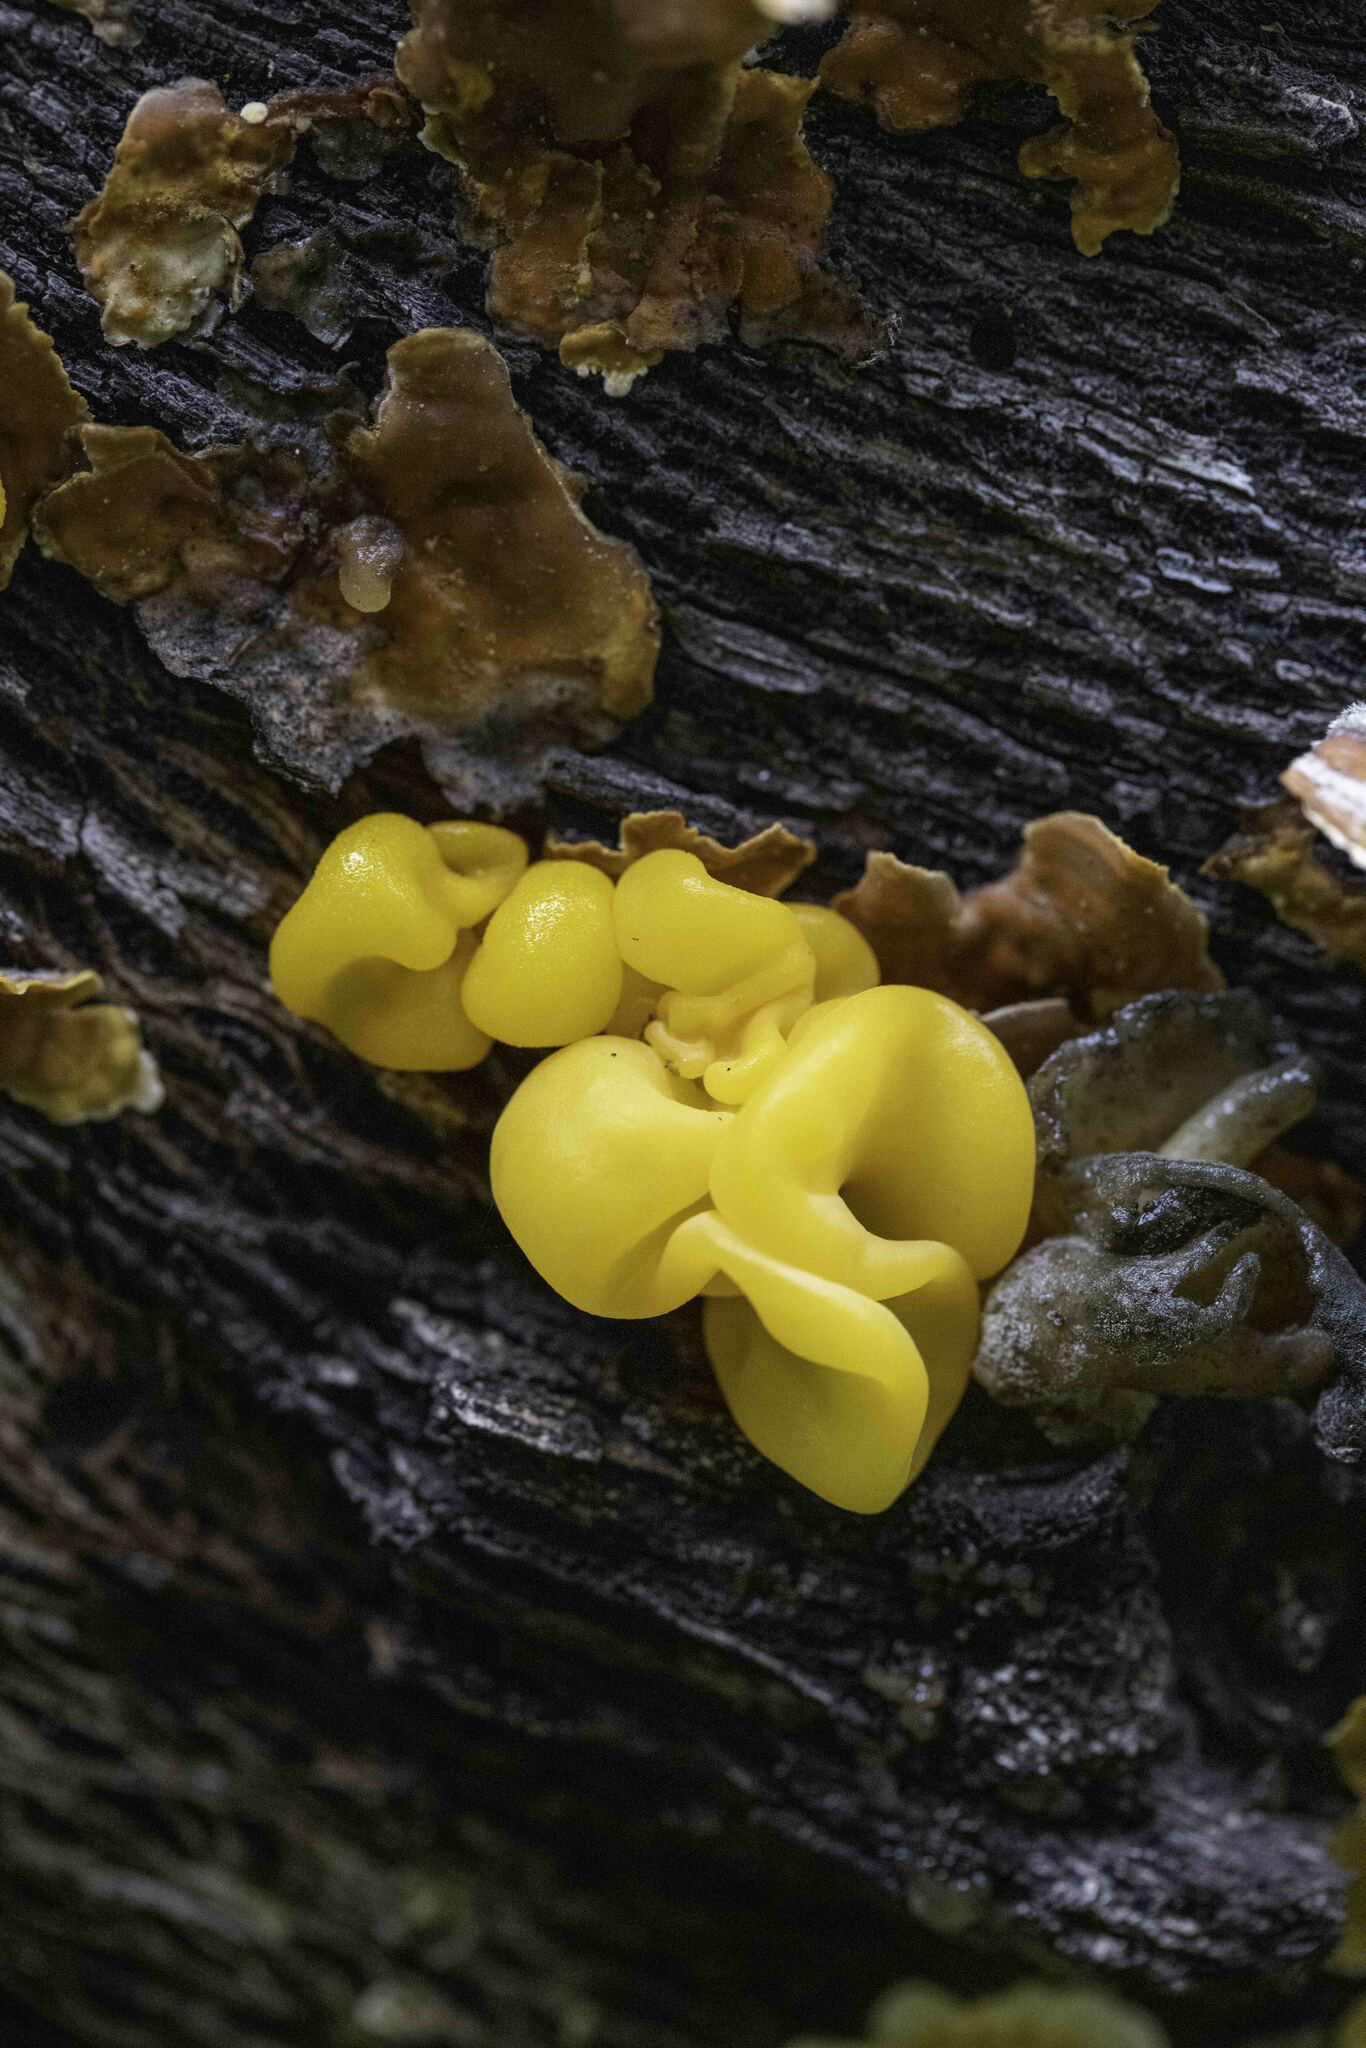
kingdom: Fungi
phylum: Basidiomycota
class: Tremellomycetes
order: Tremellales
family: Naemateliaceae
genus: Naematelia
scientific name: Naematelia aurantia
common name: Golden ear
